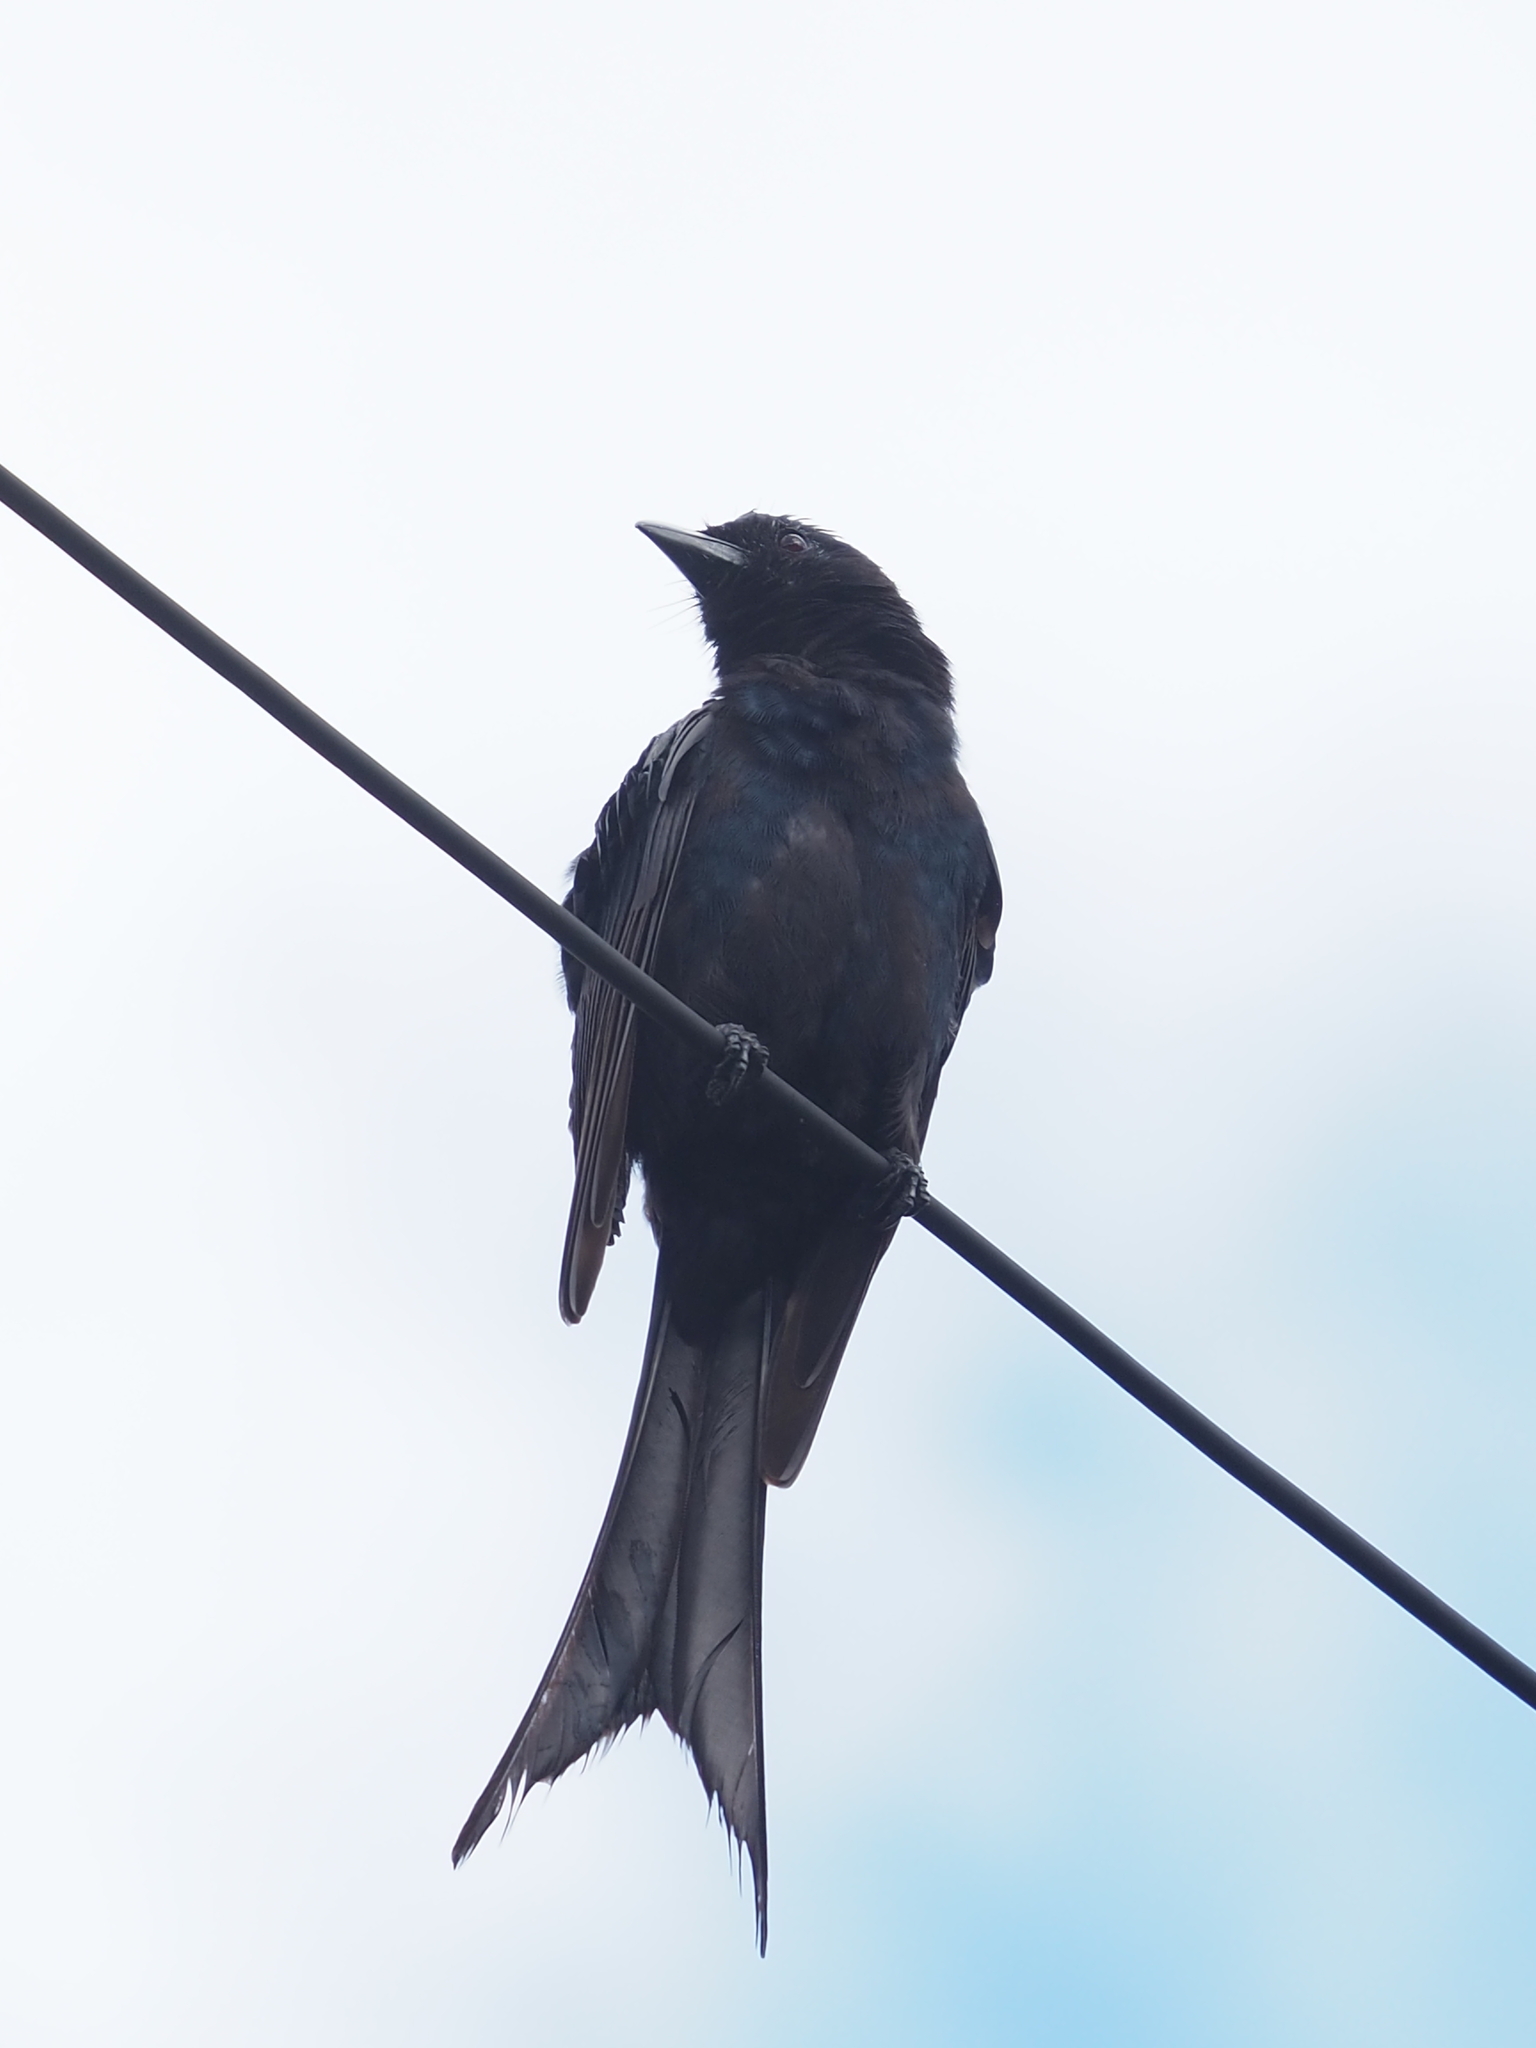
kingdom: Animalia
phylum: Chordata
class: Aves
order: Passeriformes
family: Dicruridae
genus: Dicrurus
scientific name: Dicrurus macrocercus
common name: Black drongo
